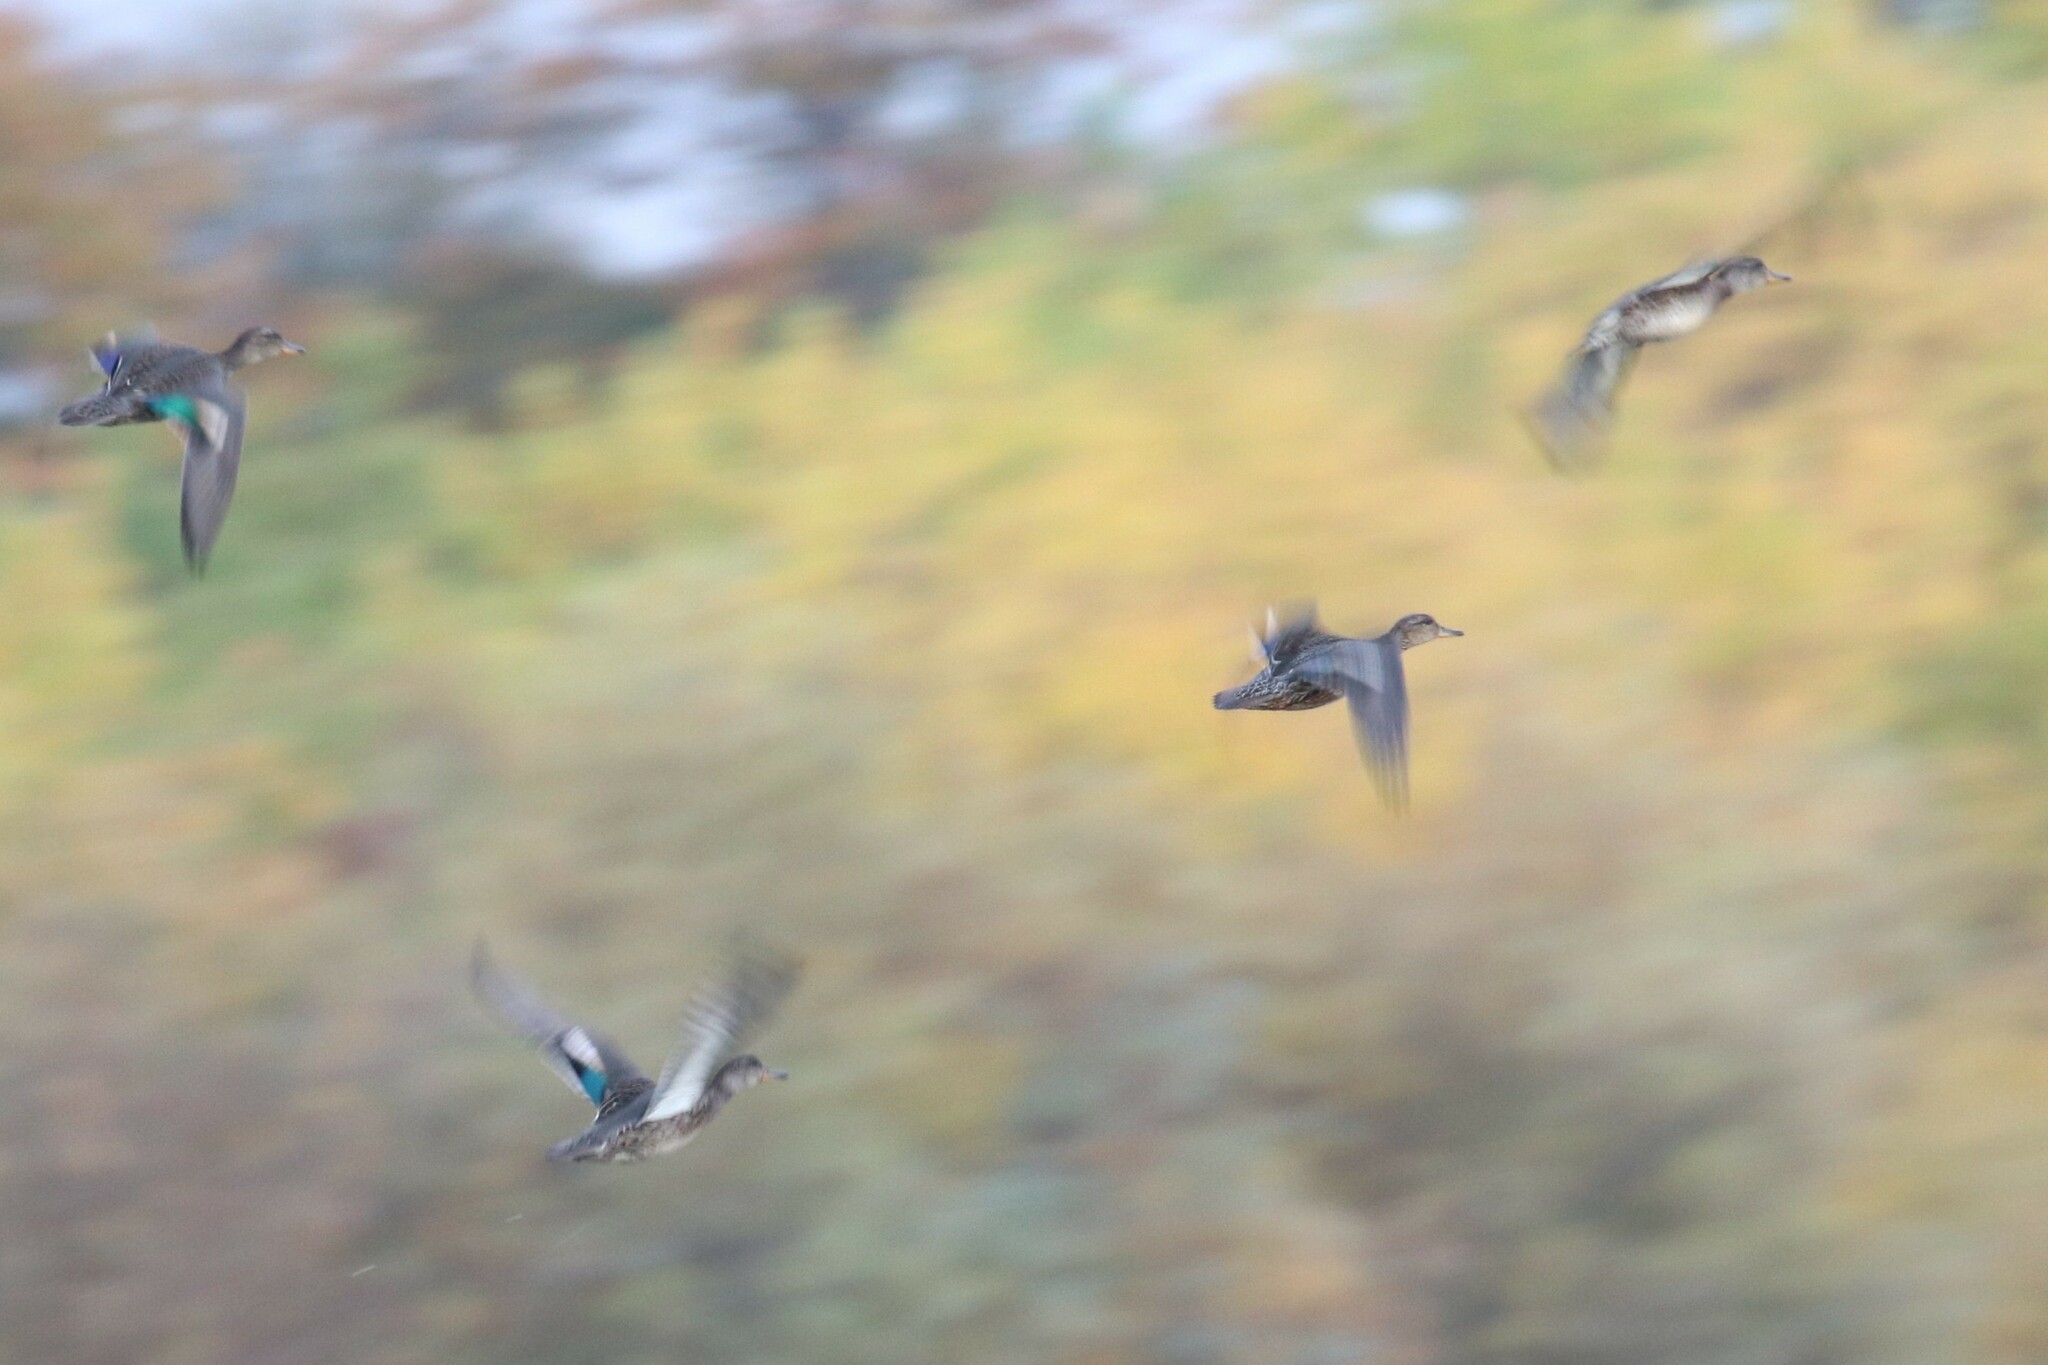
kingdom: Animalia
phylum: Chordata
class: Aves
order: Anseriformes
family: Anatidae
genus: Anas
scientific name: Anas crecca
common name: Eurasian teal
